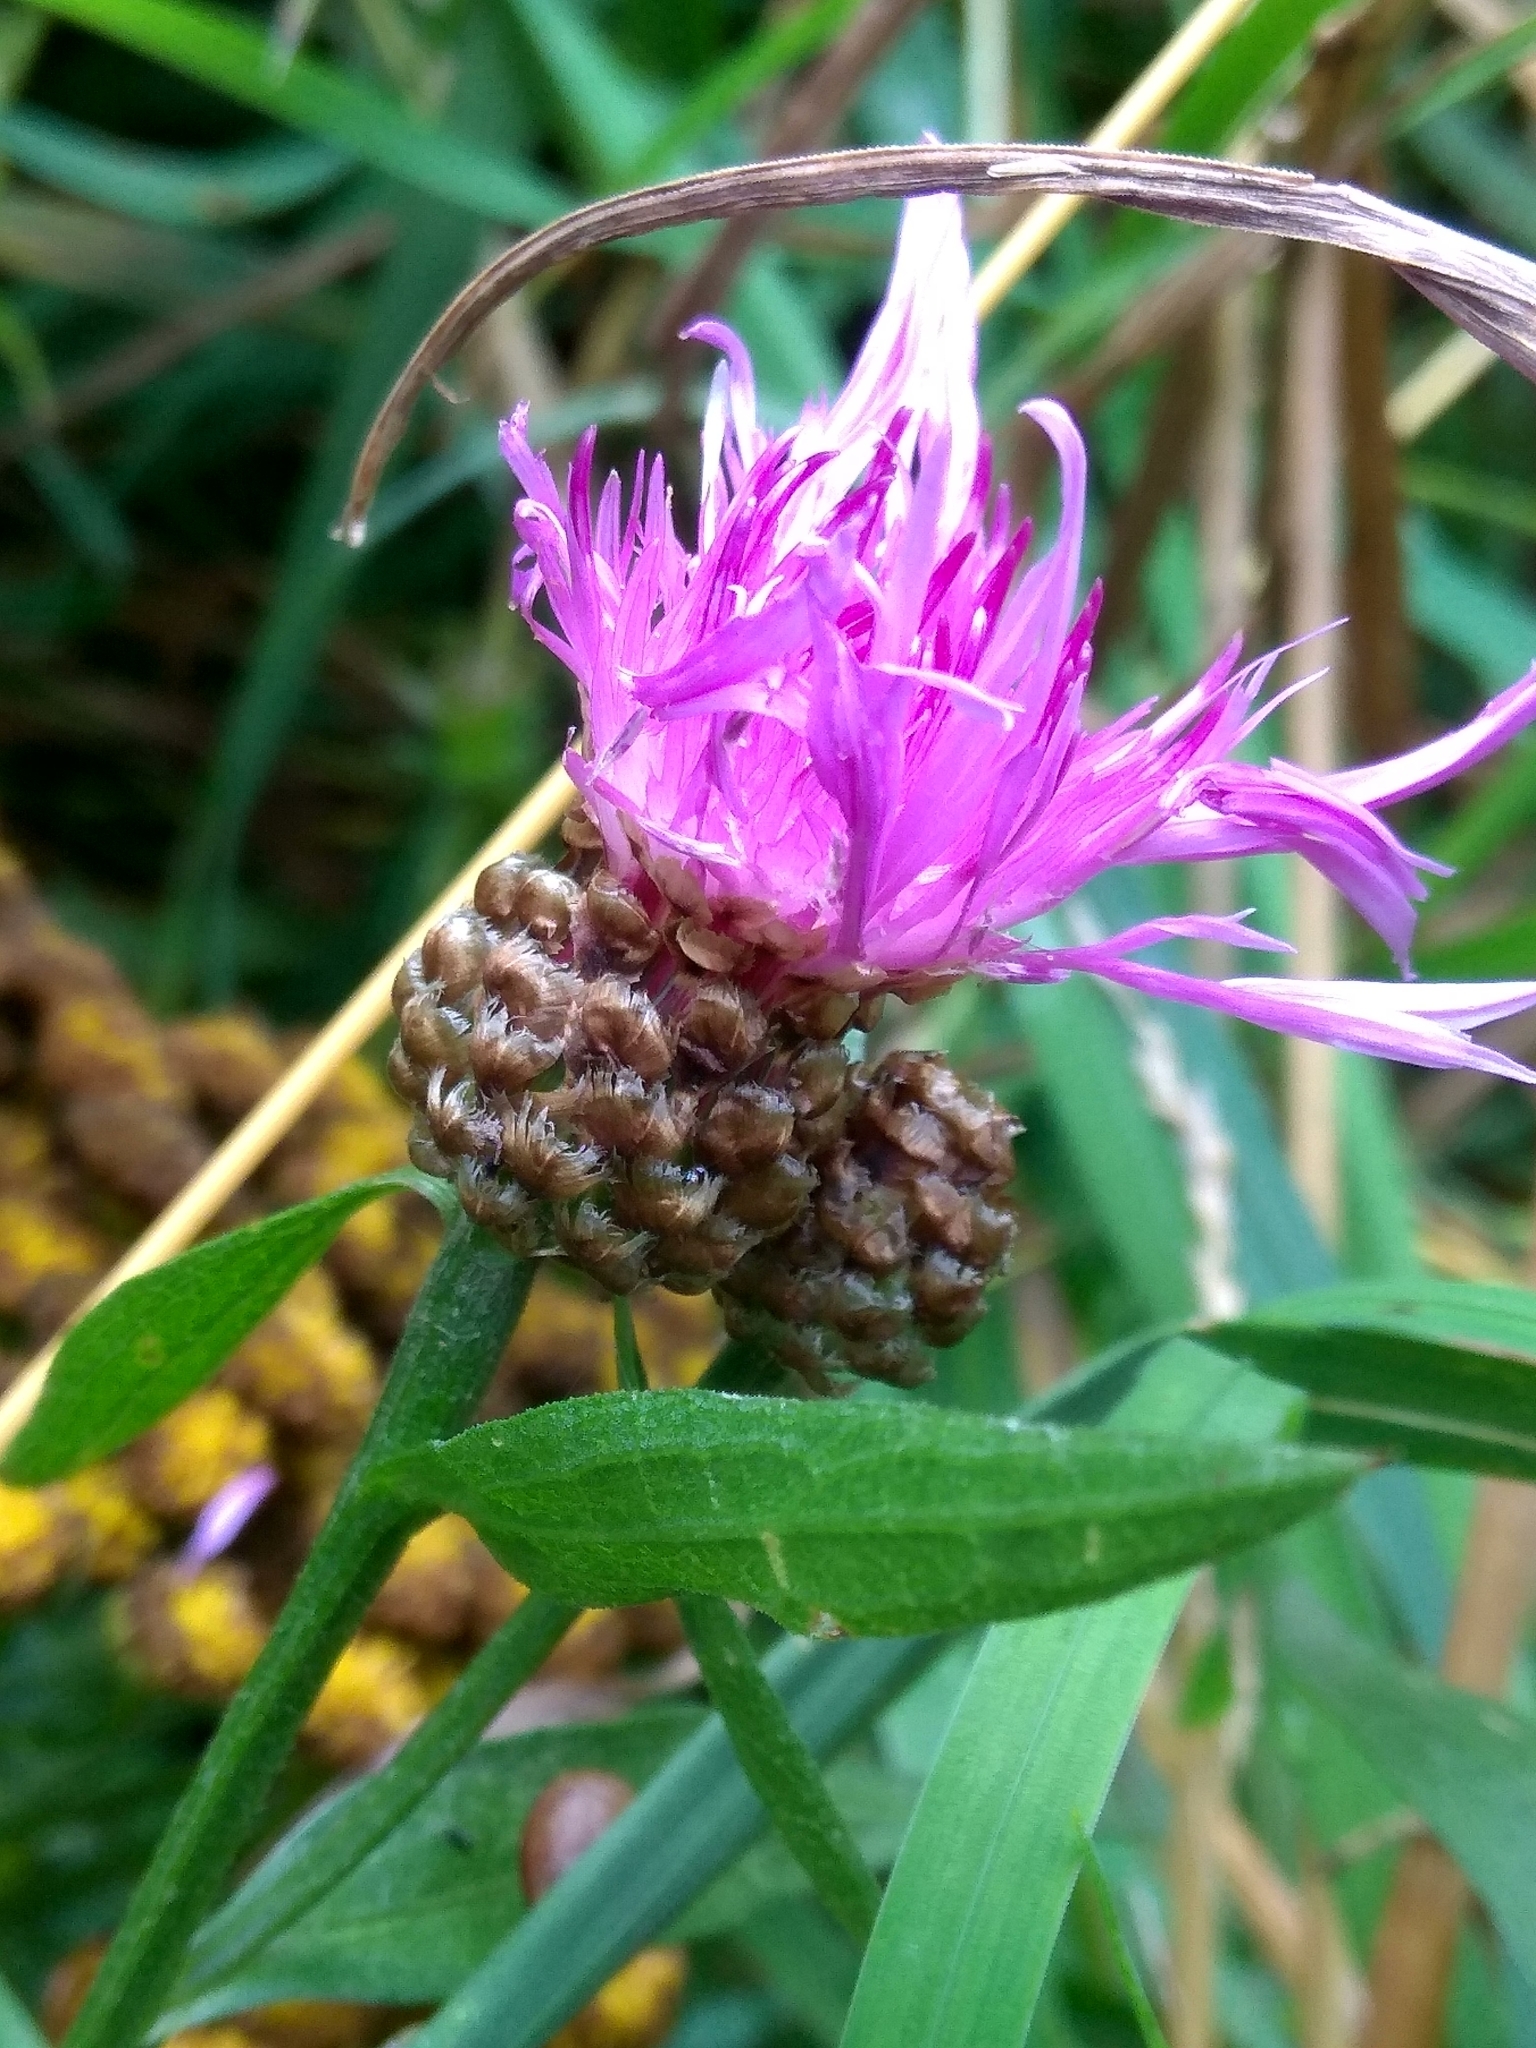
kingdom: Plantae
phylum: Tracheophyta
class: Magnoliopsida
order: Asterales
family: Asteraceae
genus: Centaurea
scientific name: Centaurea jacea
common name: Brown knapweed
